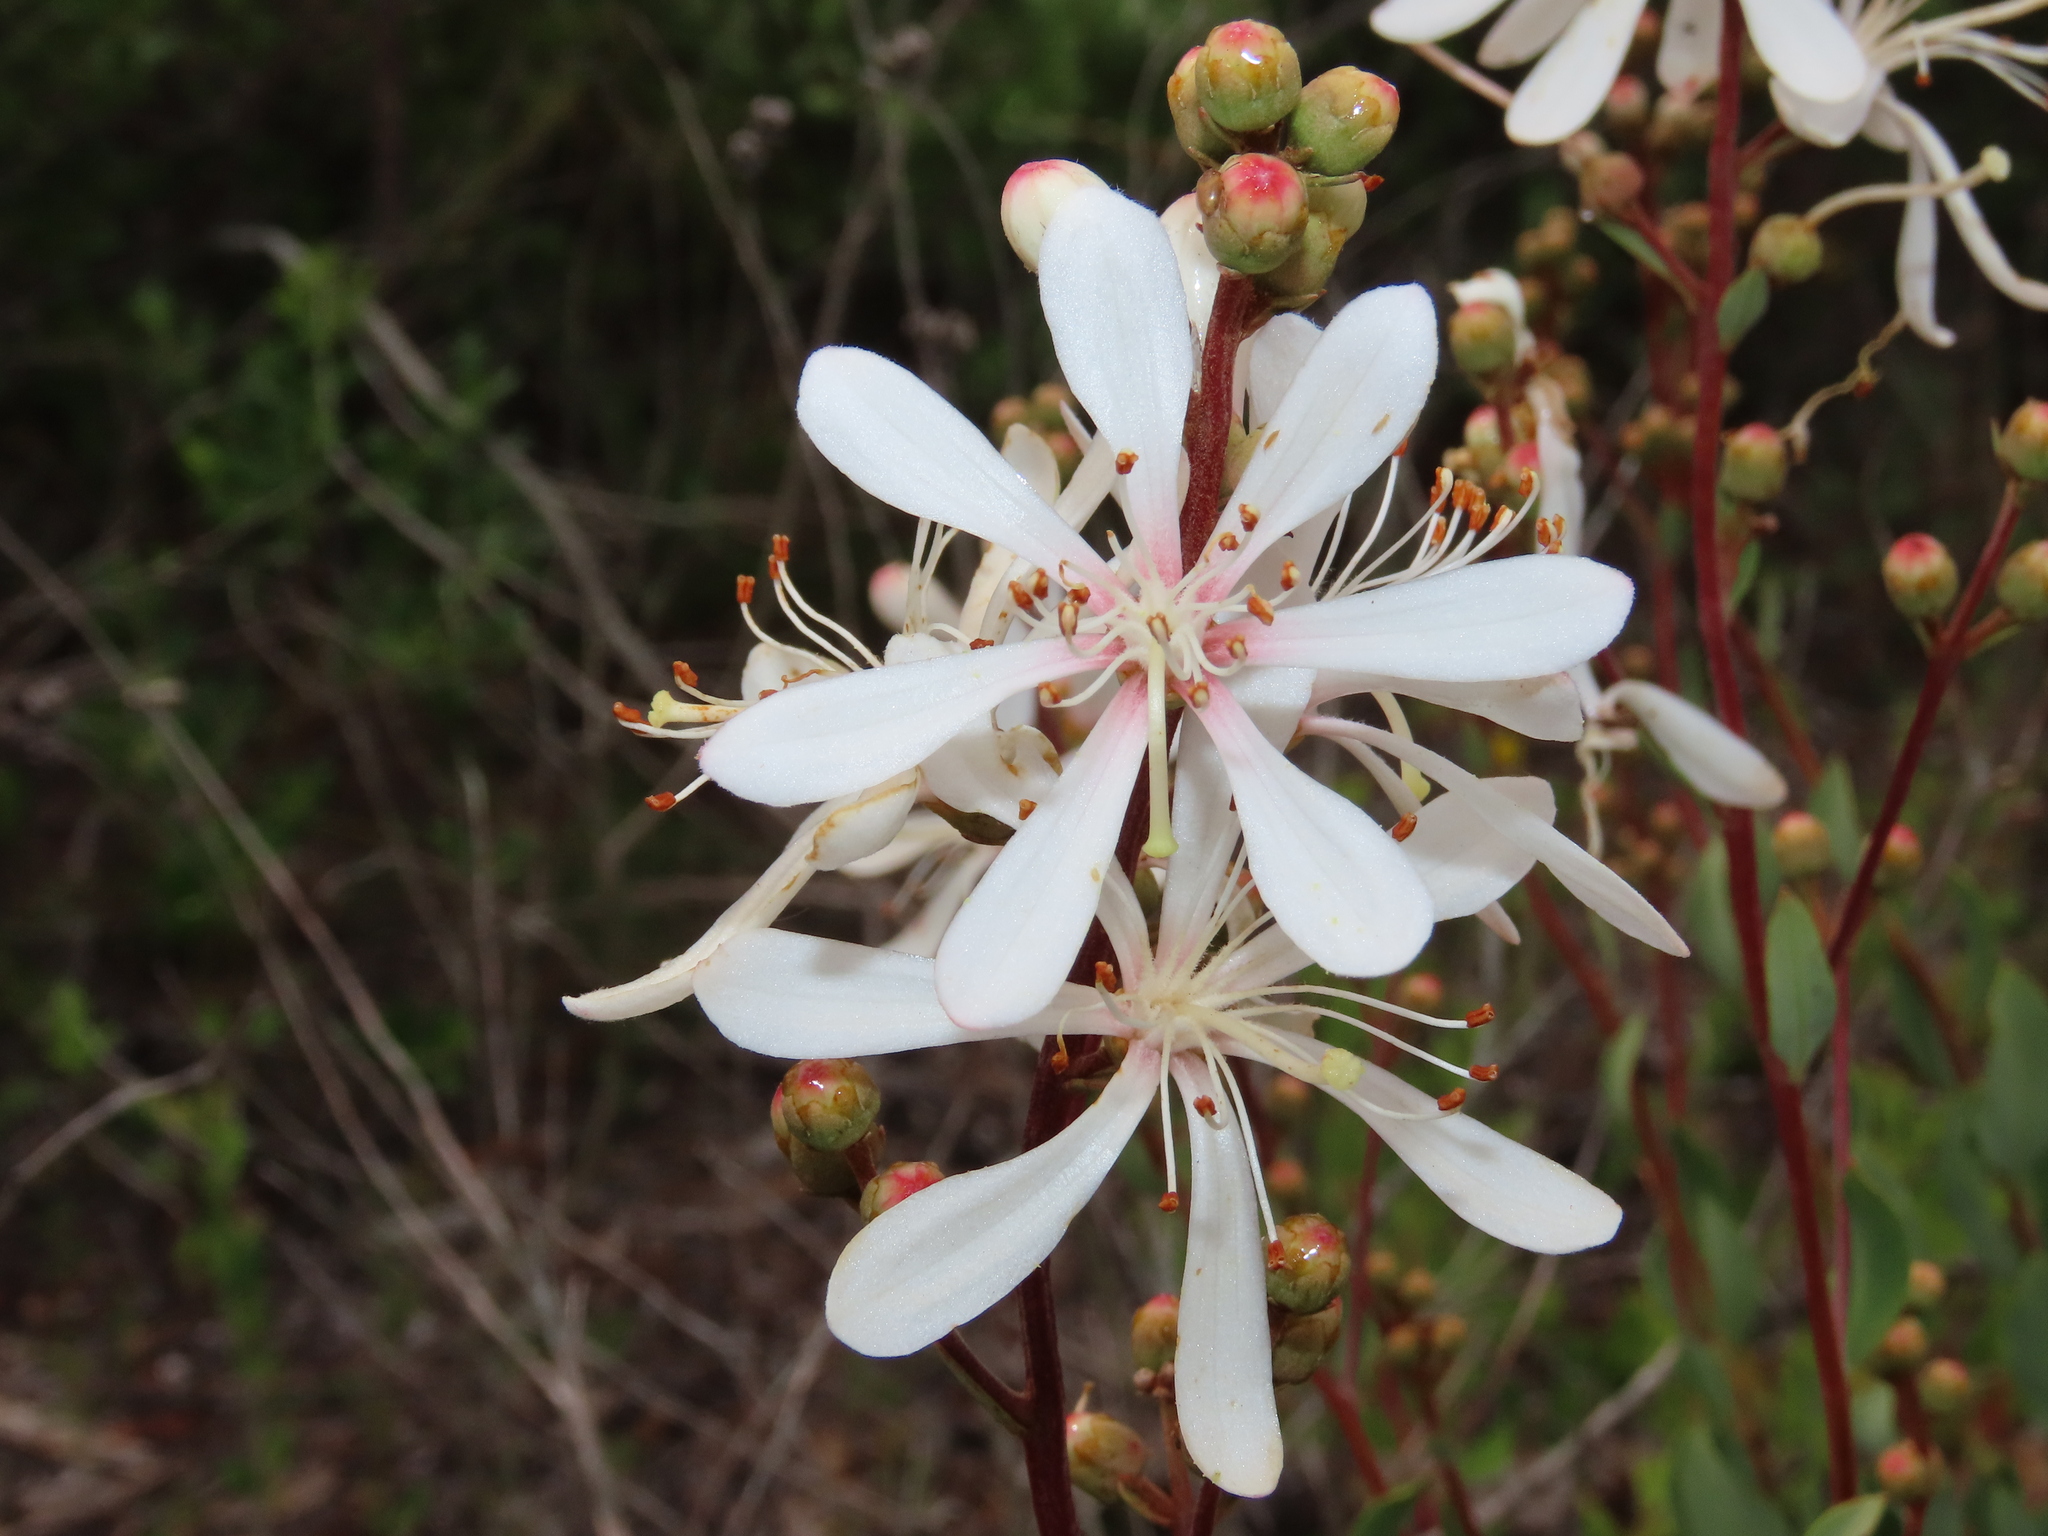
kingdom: Plantae
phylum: Tracheophyta
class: Magnoliopsida
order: Ericales
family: Ericaceae
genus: Bejaria
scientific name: Bejaria racemosa
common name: Tarflower
